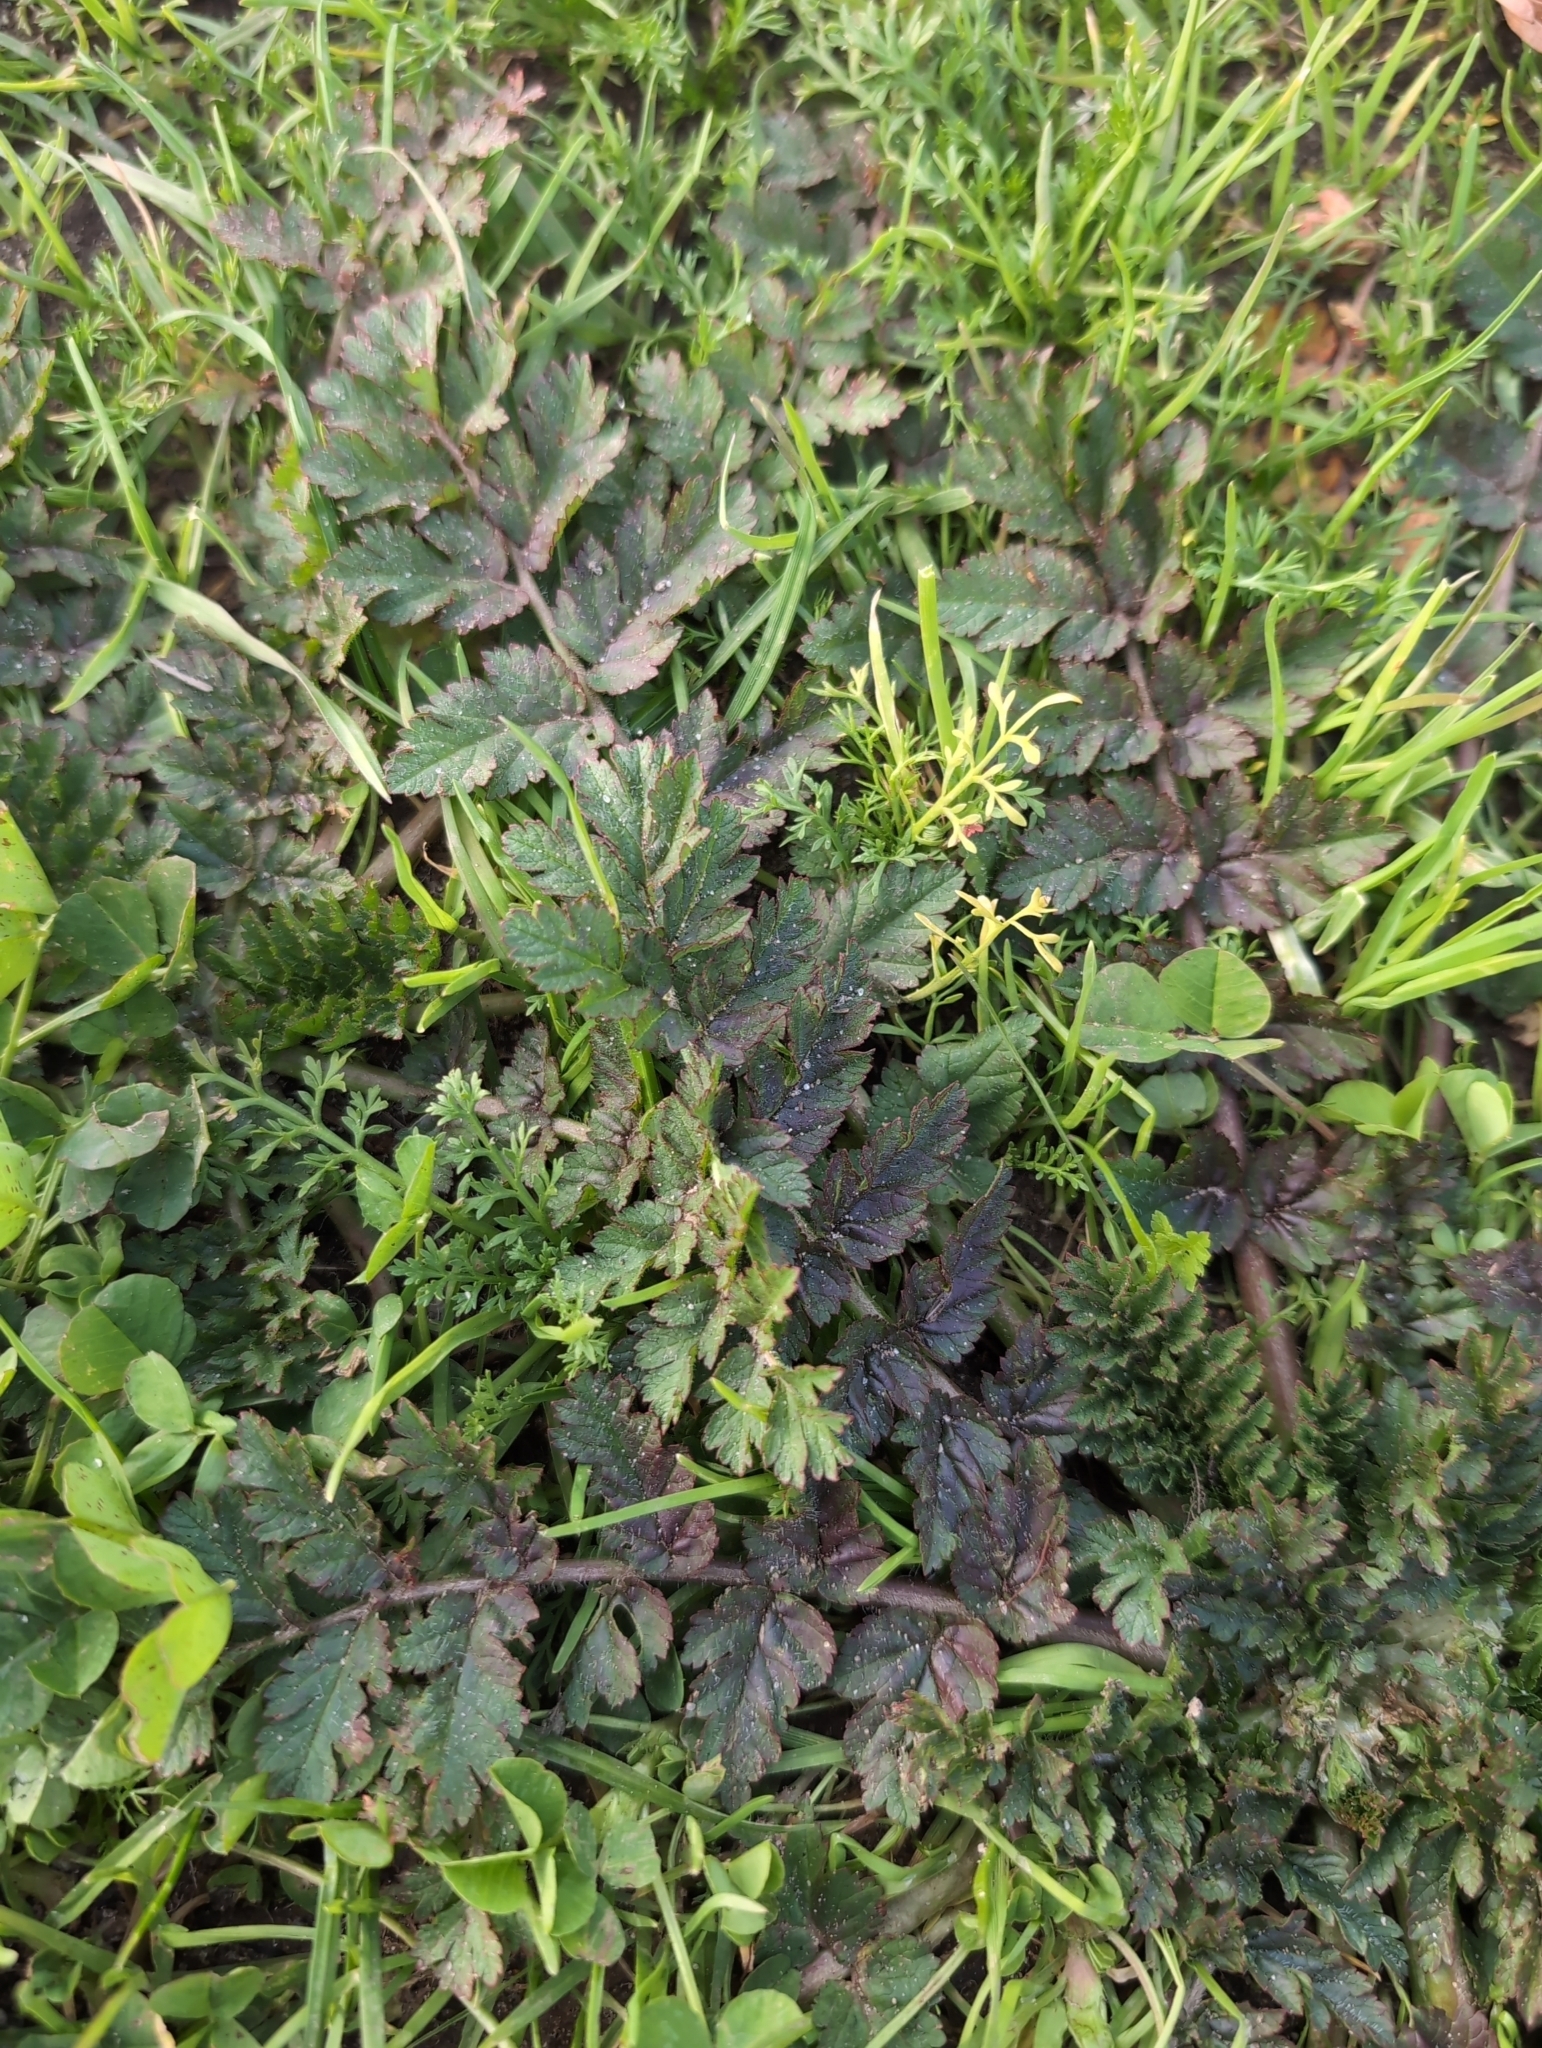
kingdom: Plantae
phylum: Tracheophyta
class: Magnoliopsida
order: Geraniales
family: Geraniaceae
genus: Erodium
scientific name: Erodium moschatum
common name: Musk stork's-bill
